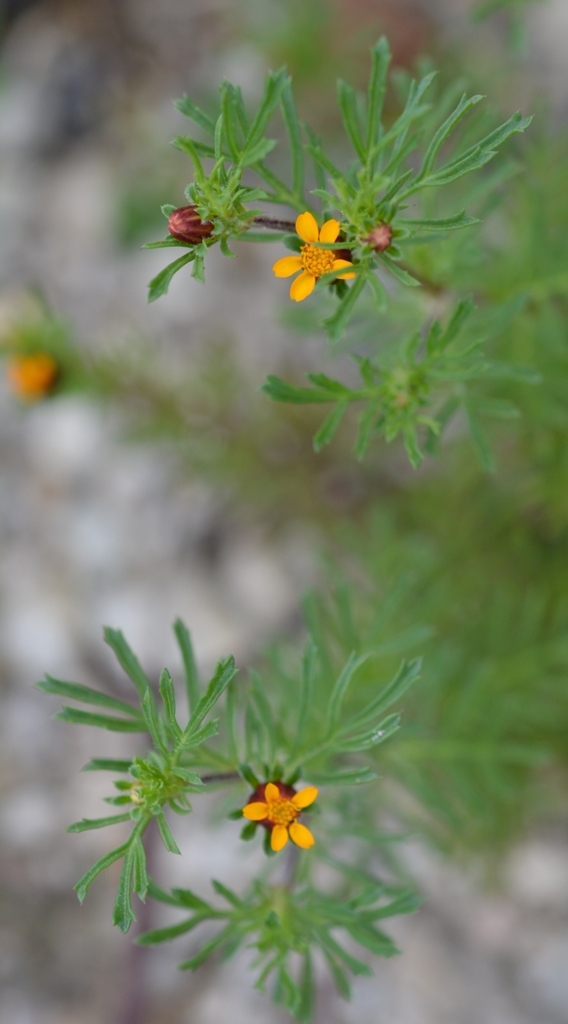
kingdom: Plantae
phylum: Tracheophyta
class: Magnoliopsida
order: Asterales
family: Asteraceae
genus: Dyssodia
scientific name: Dyssodia papposa
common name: Dogweed
